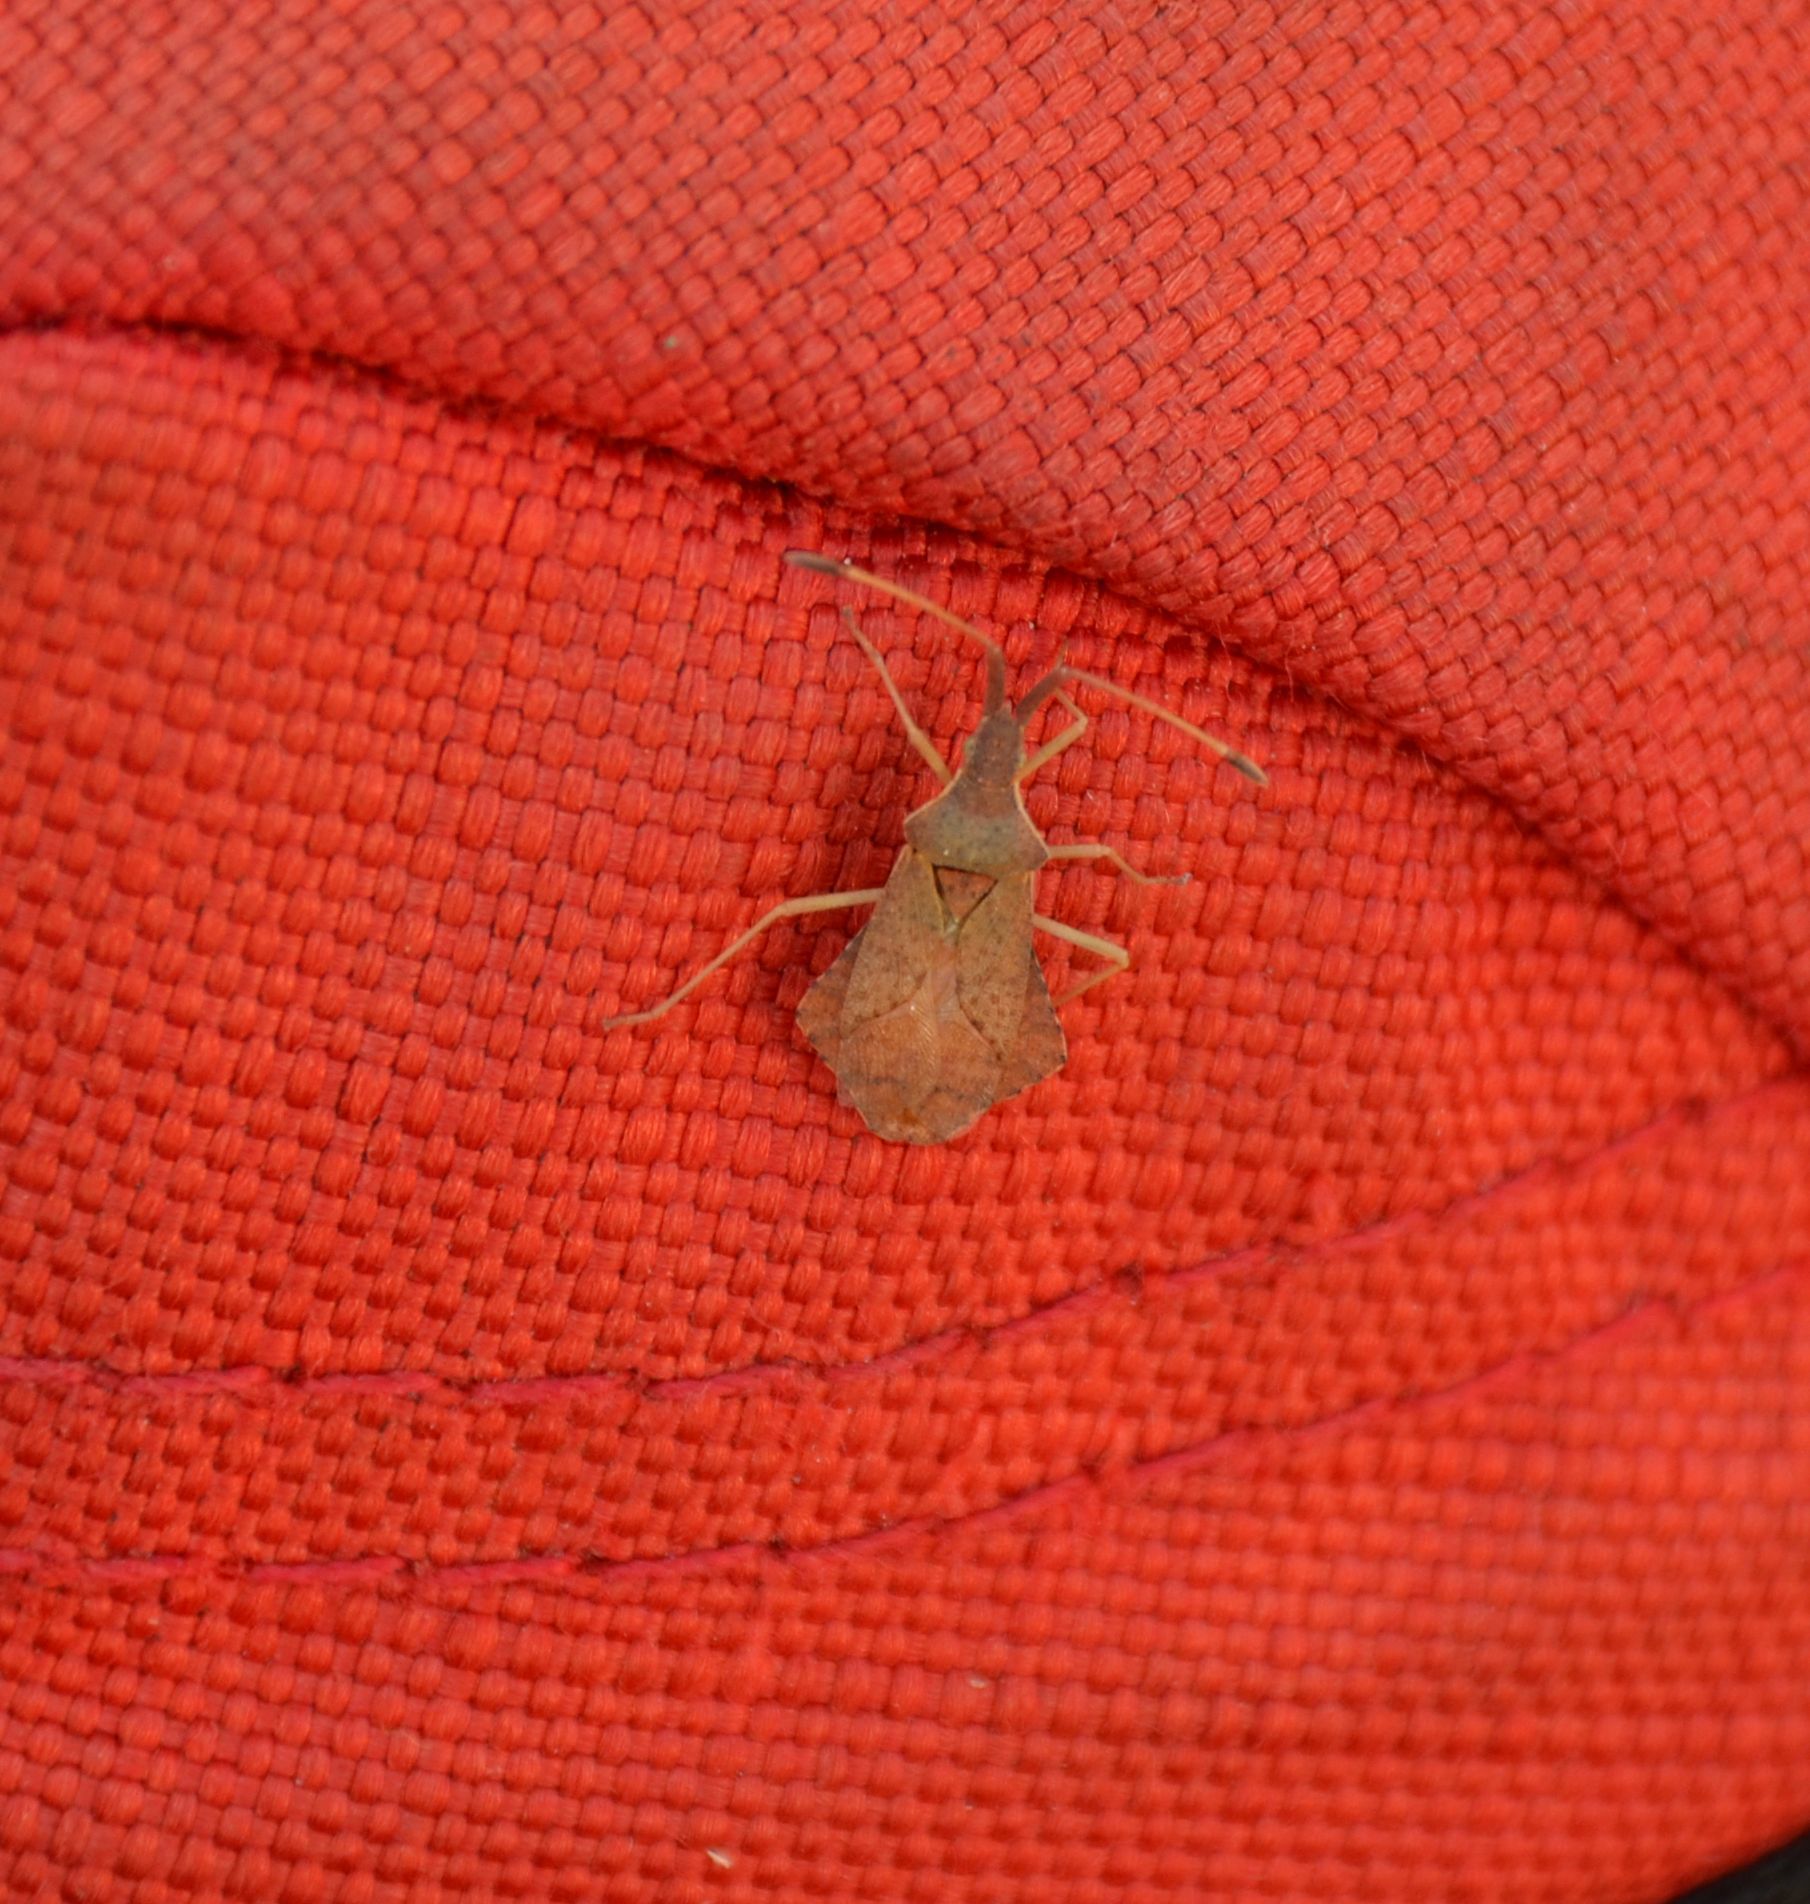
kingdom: Animalia
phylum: Arthropoda
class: Insecta
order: Hemiptera
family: Coreidae
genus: Syromastus
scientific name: Syromastus rhombeus
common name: Rhombic leatherbug
